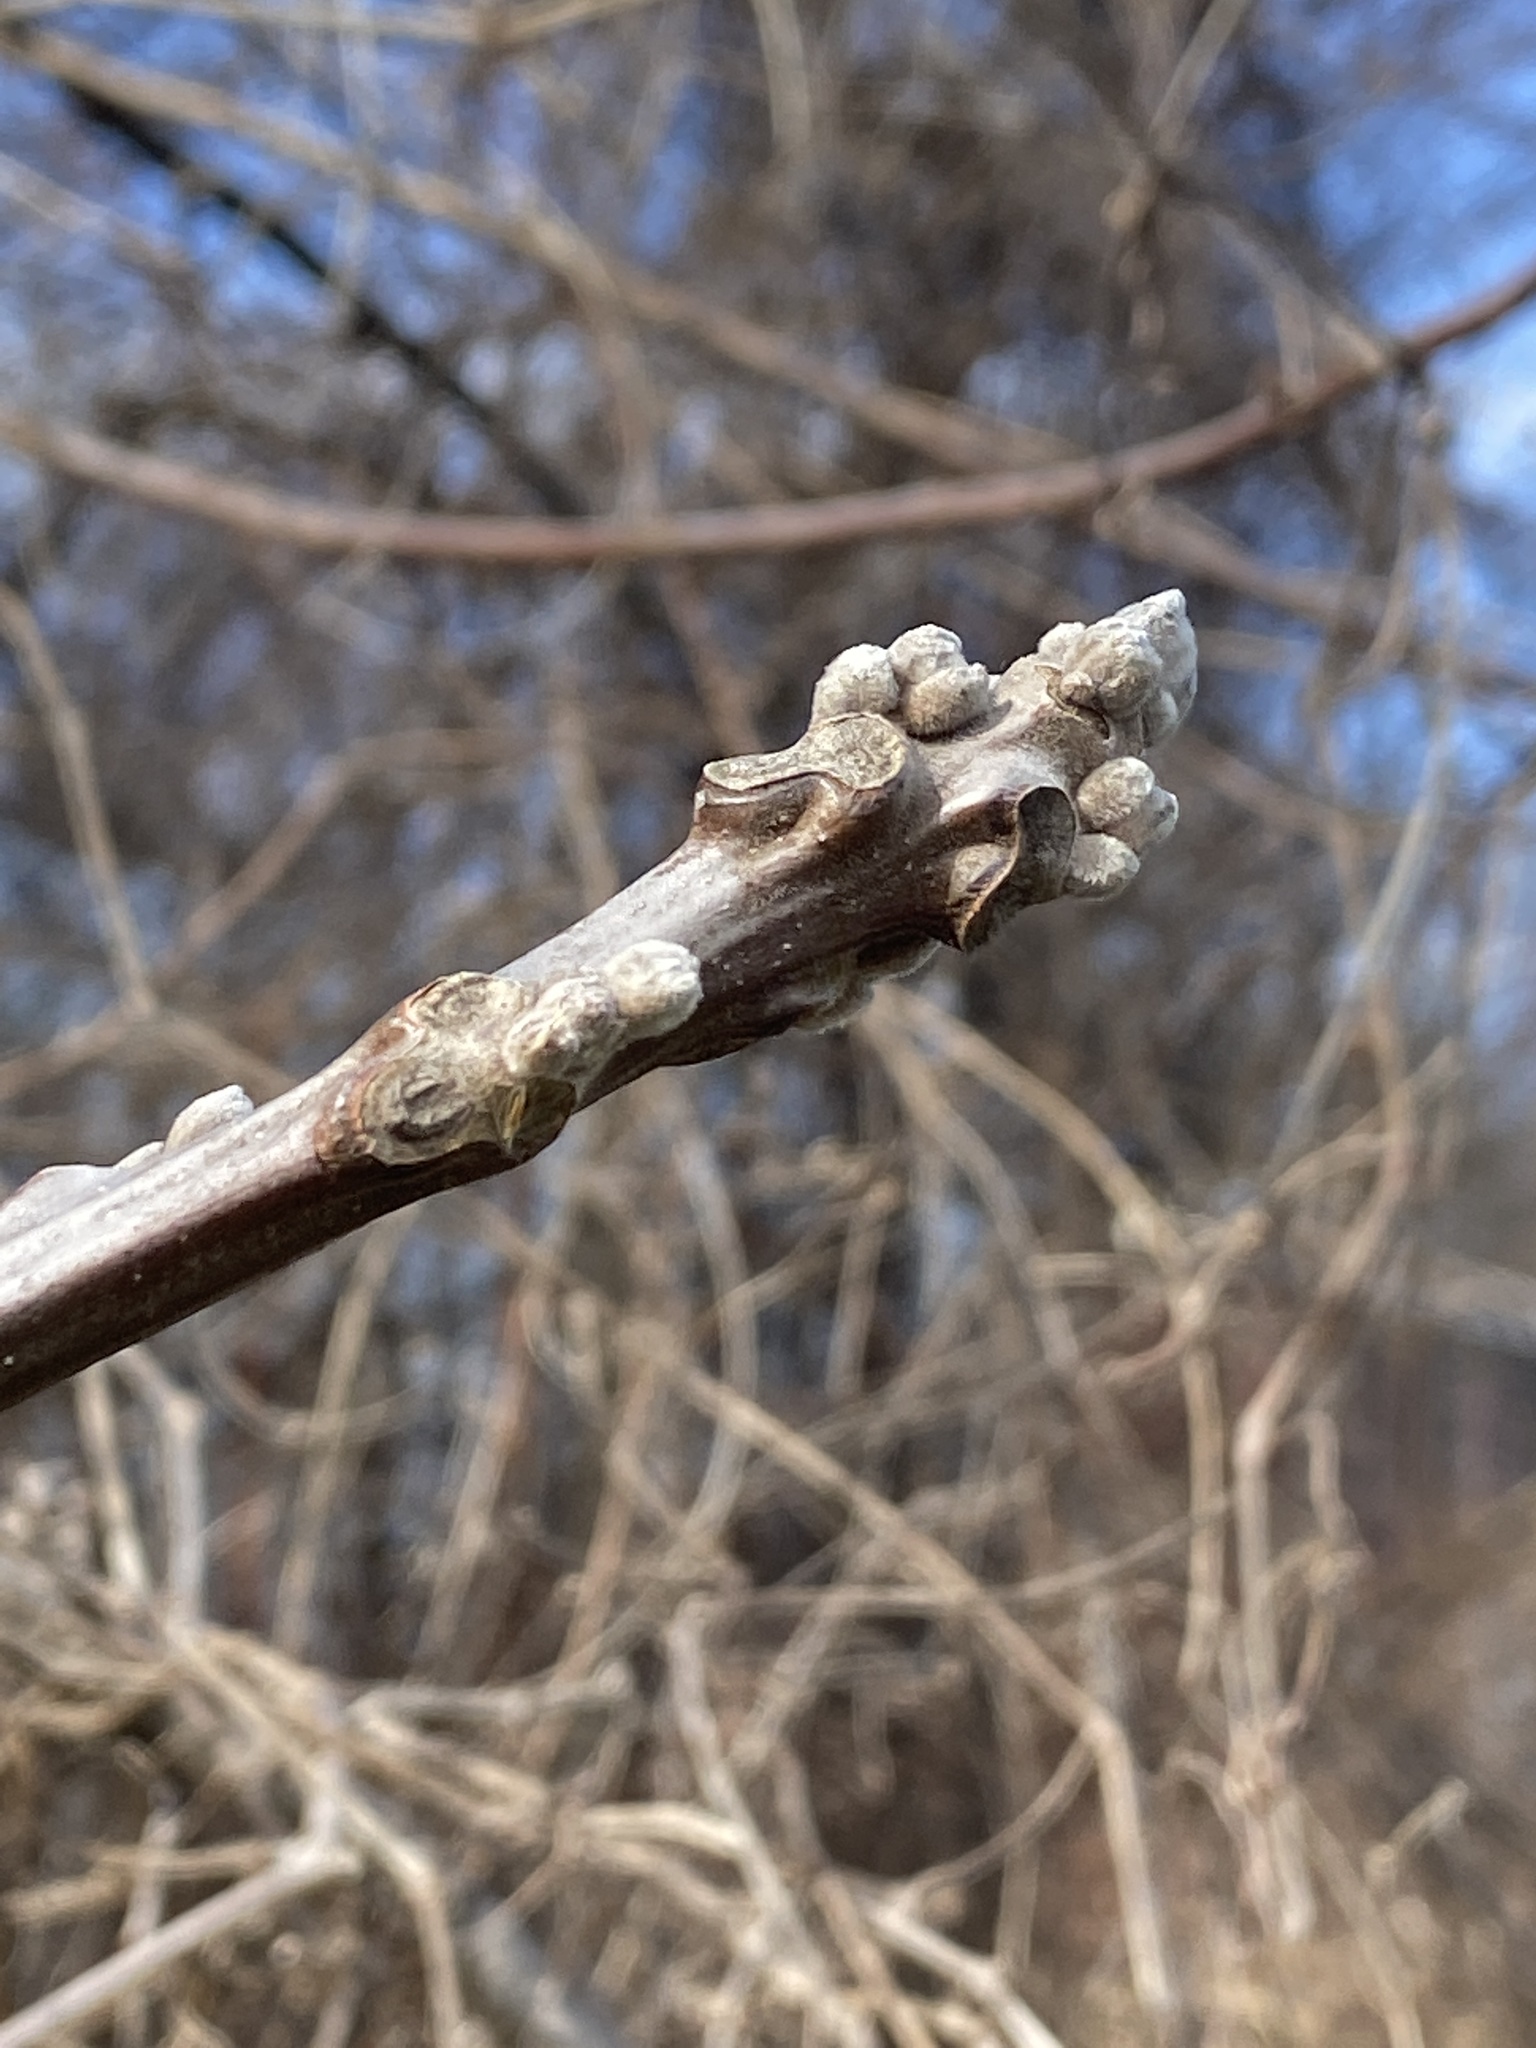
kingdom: Plantae
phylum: Tracheophyta
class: Magnoliopsida
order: Fagales
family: Juglandaceae
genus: Juglans
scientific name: Juglans nigra
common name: Black walnut
